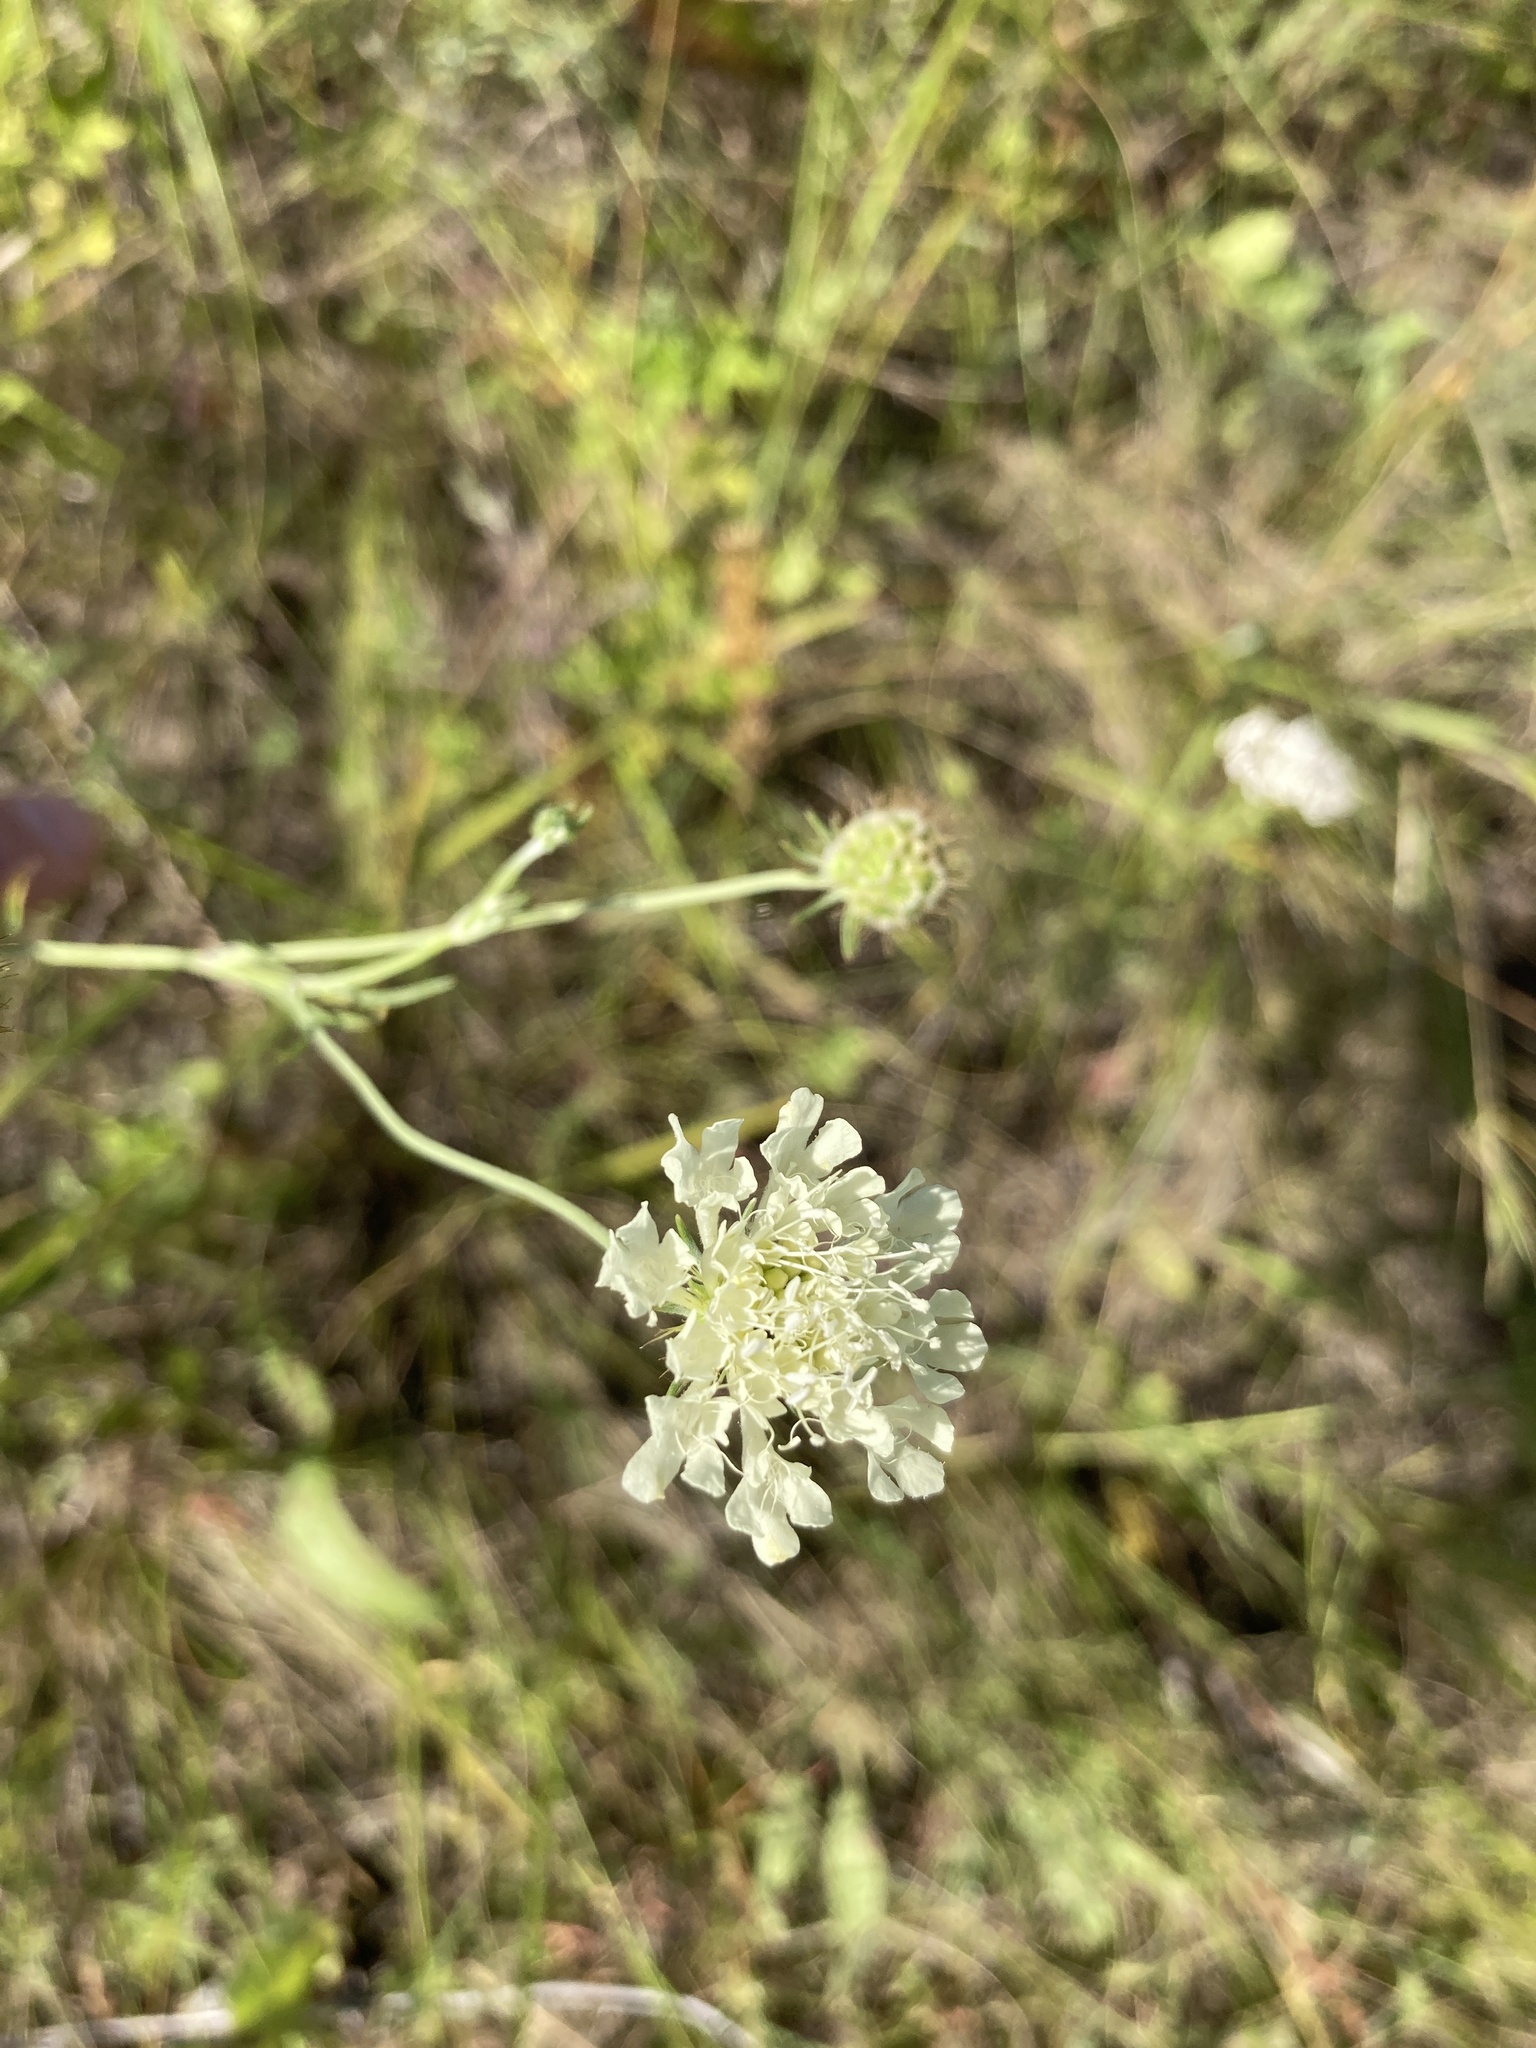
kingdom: Plantae
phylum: Tracheophyta
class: Magnoliopsida
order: Dipsacales
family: Caprifoliaceae
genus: Scabiosa
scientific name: Scabiosa ochroleuca
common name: Cream pincushions
